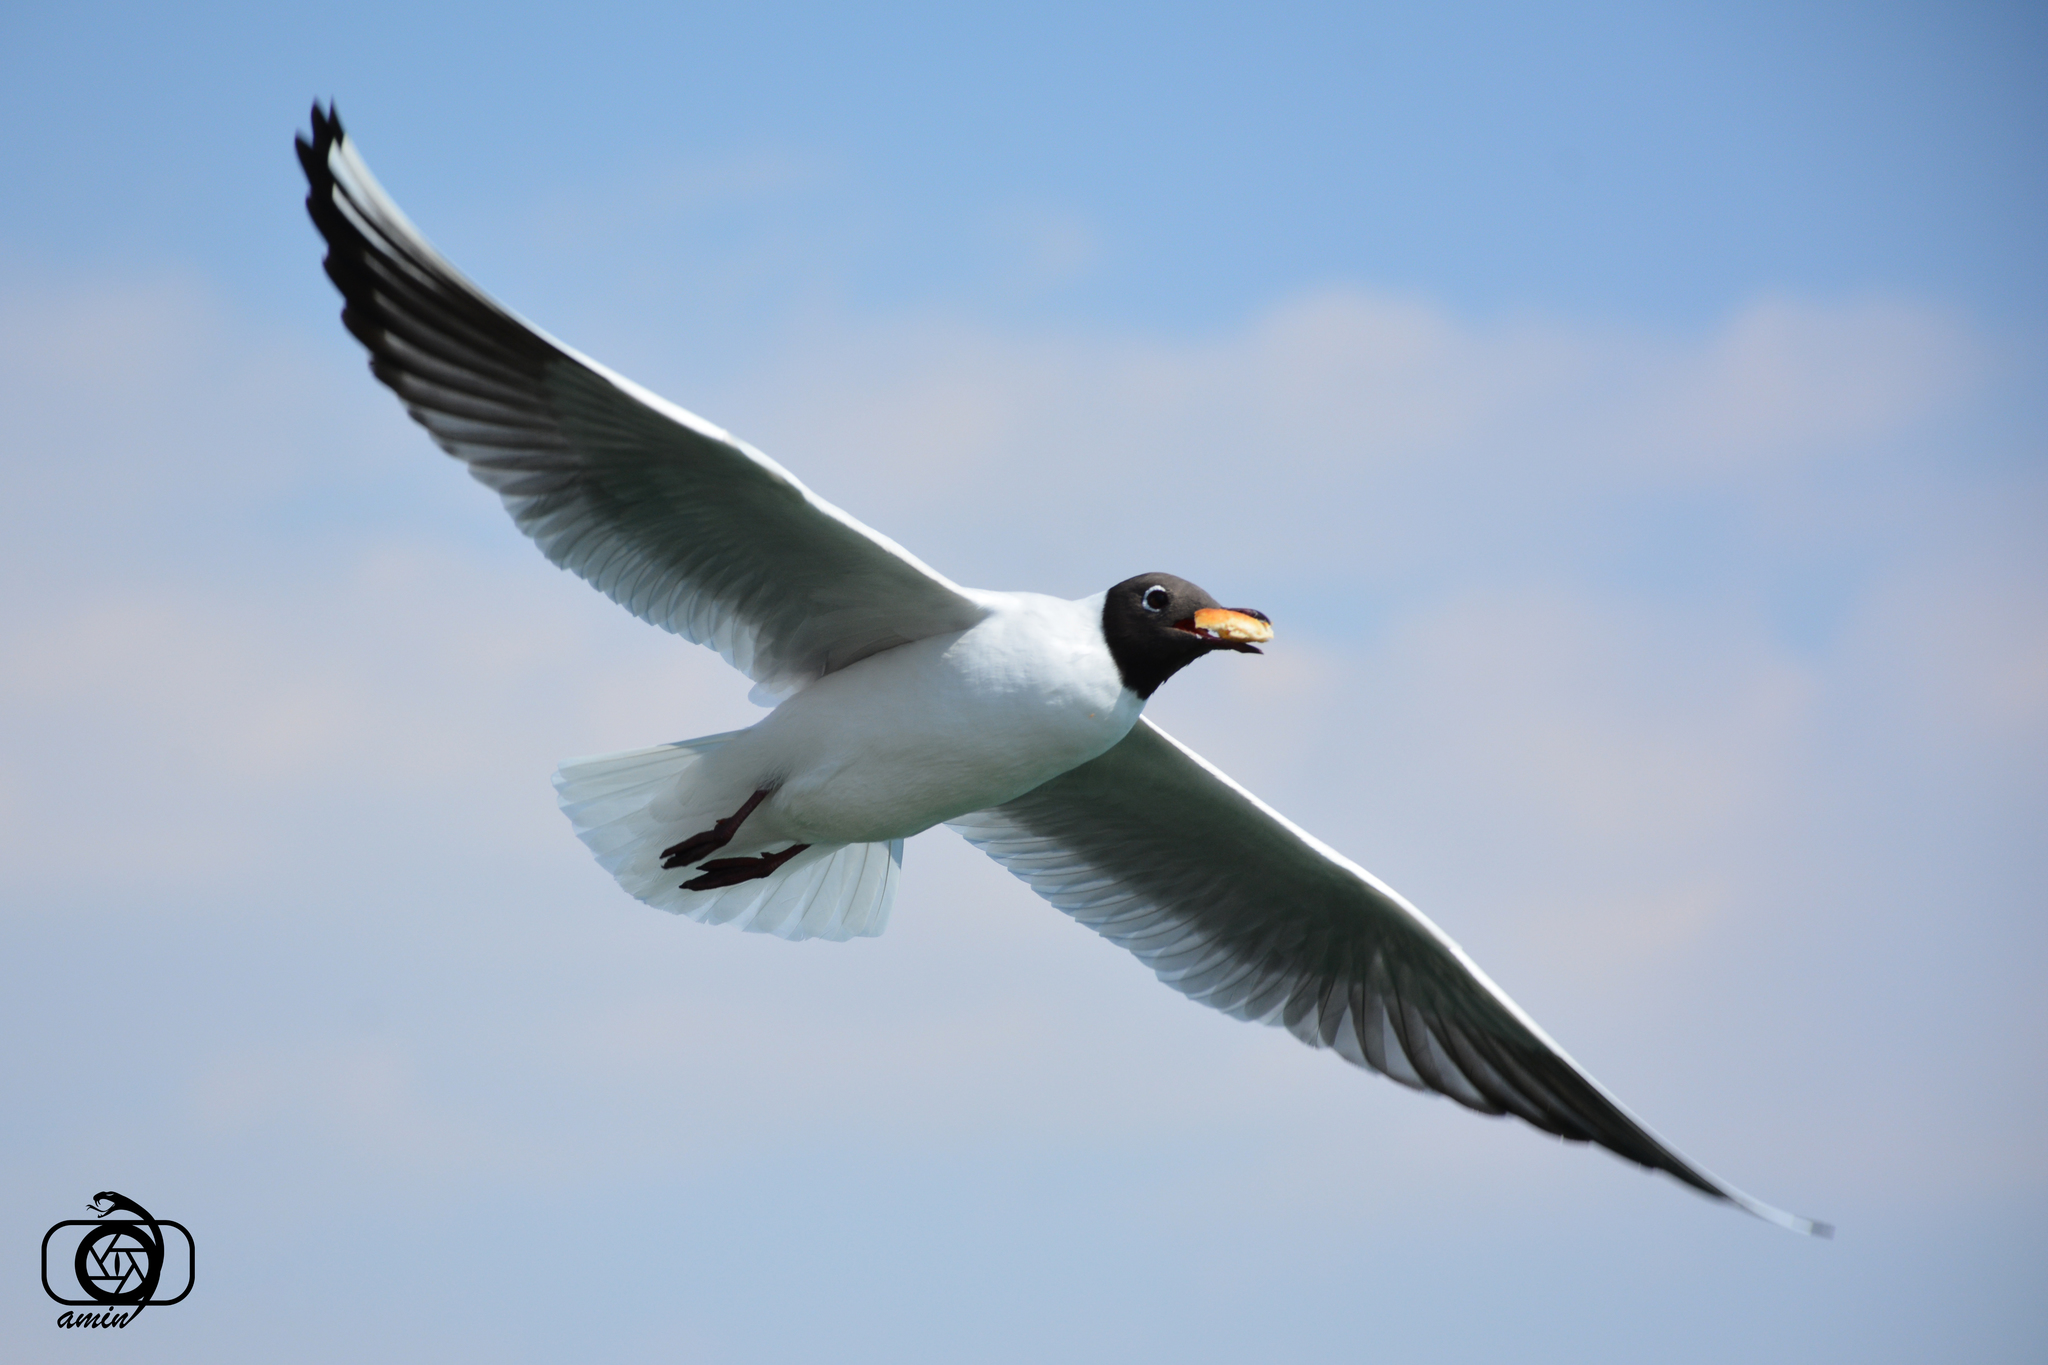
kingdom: Animalia
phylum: Chordata
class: Aves
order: Charadriiformes
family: Laridae
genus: Chroicocephalus
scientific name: Chroicocephalus ridibundus
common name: Black-headed gull
